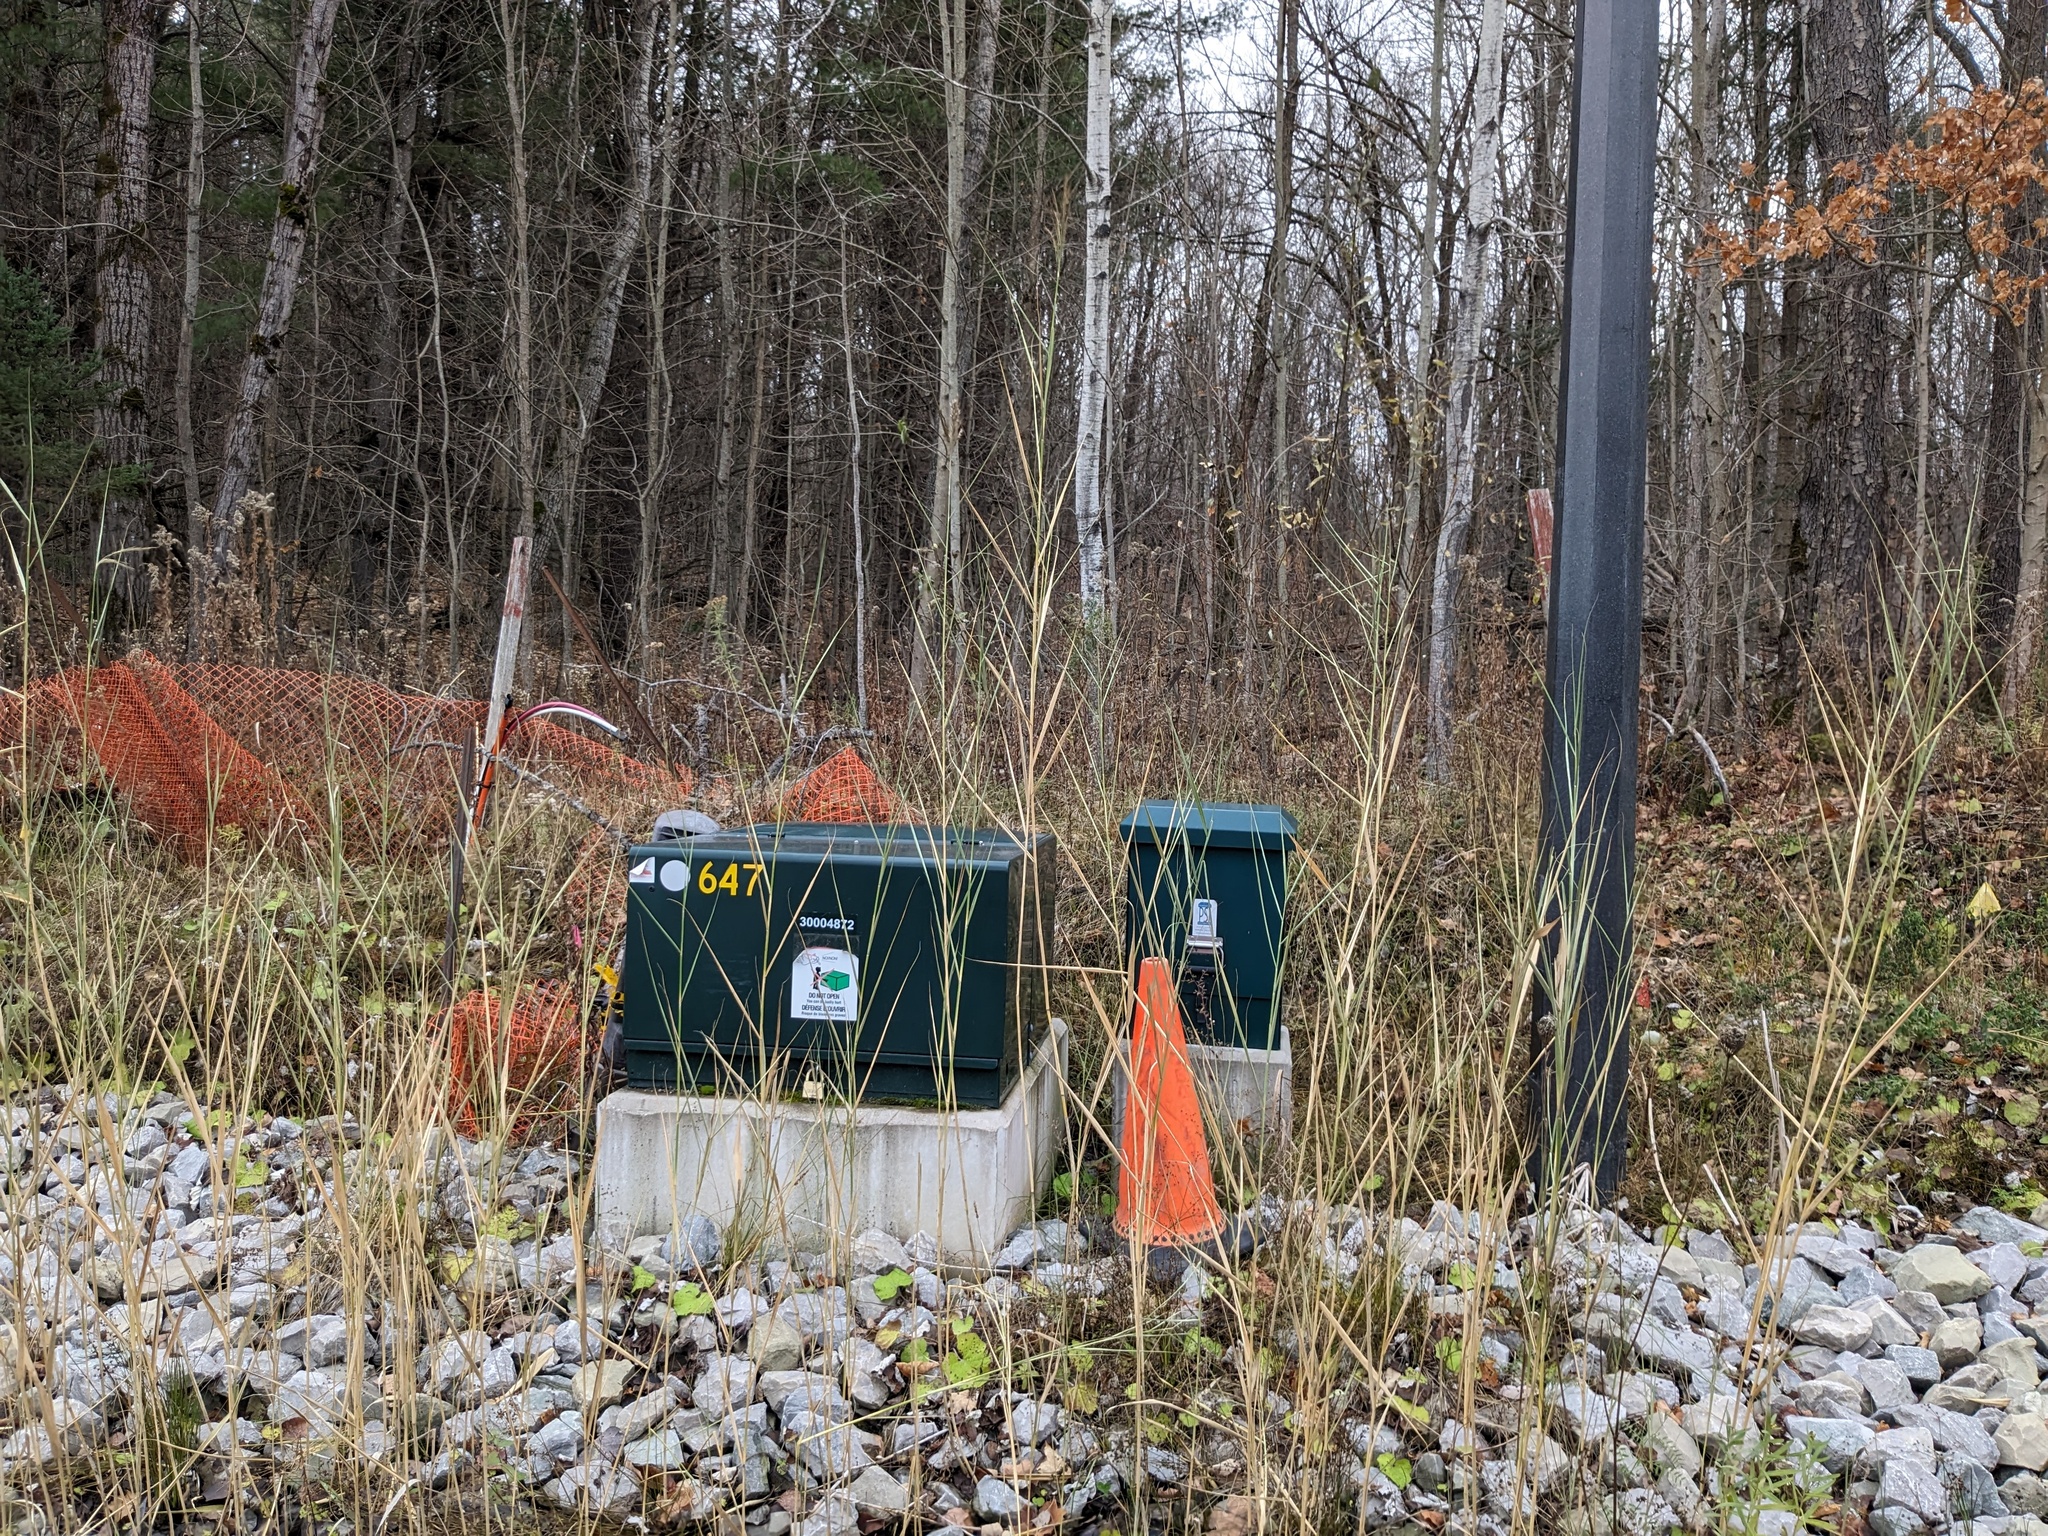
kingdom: Plantae
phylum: Tracheophyta
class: Liliopsida
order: Poales
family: Poaceae
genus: Phragmites
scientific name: Phragmites australis
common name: Common reed
